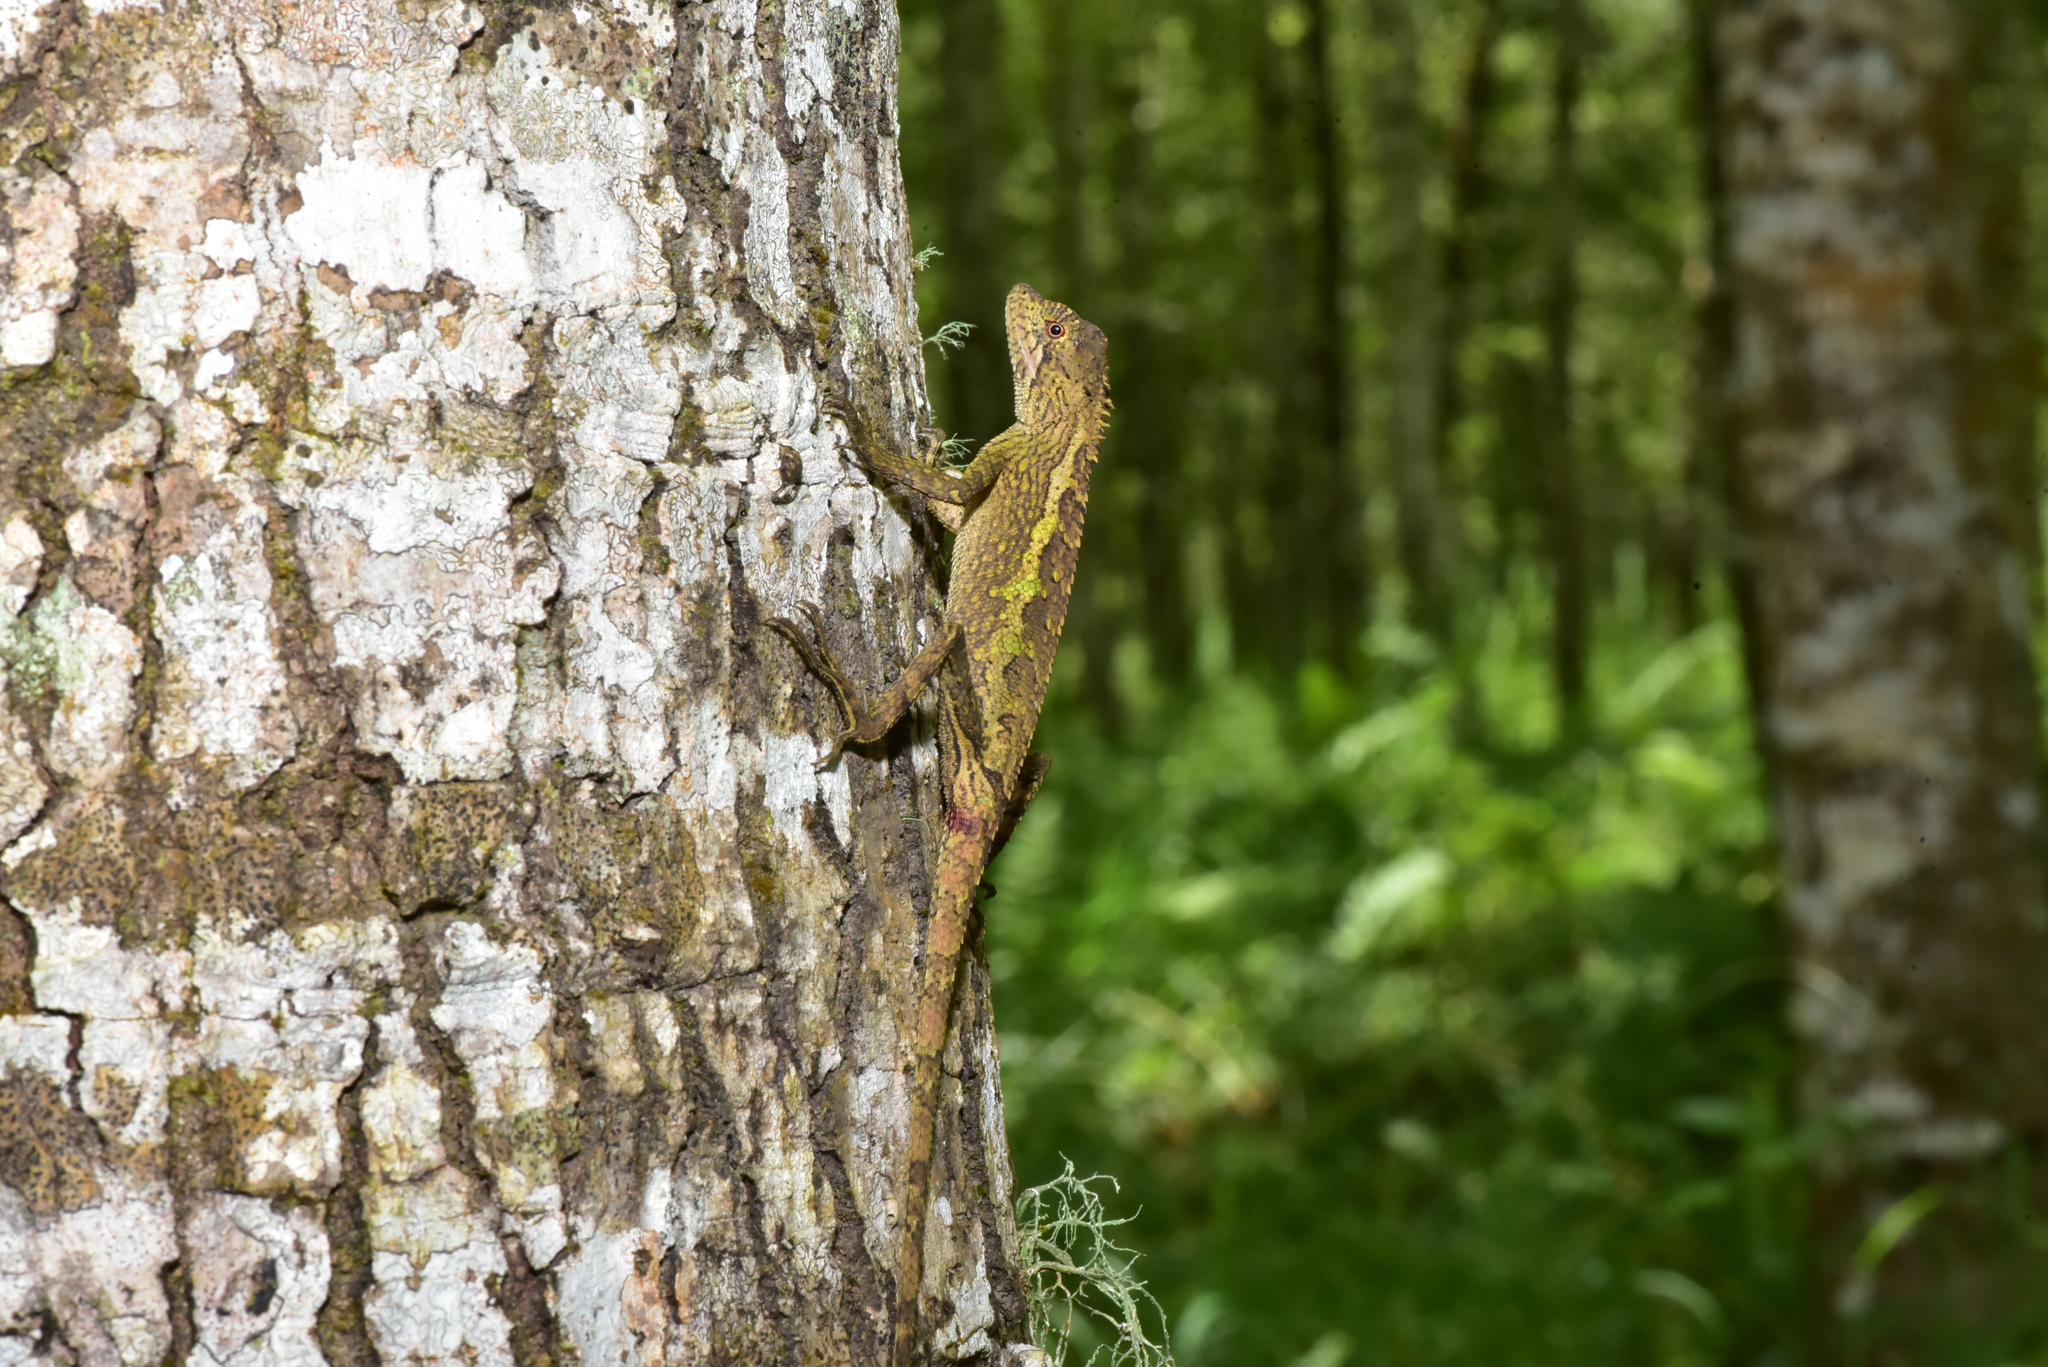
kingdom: Animalia
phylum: Chordata
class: Squamata
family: Agamidae
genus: Diploderma
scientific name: Diploderma swinhonis
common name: Taiwan japalure
